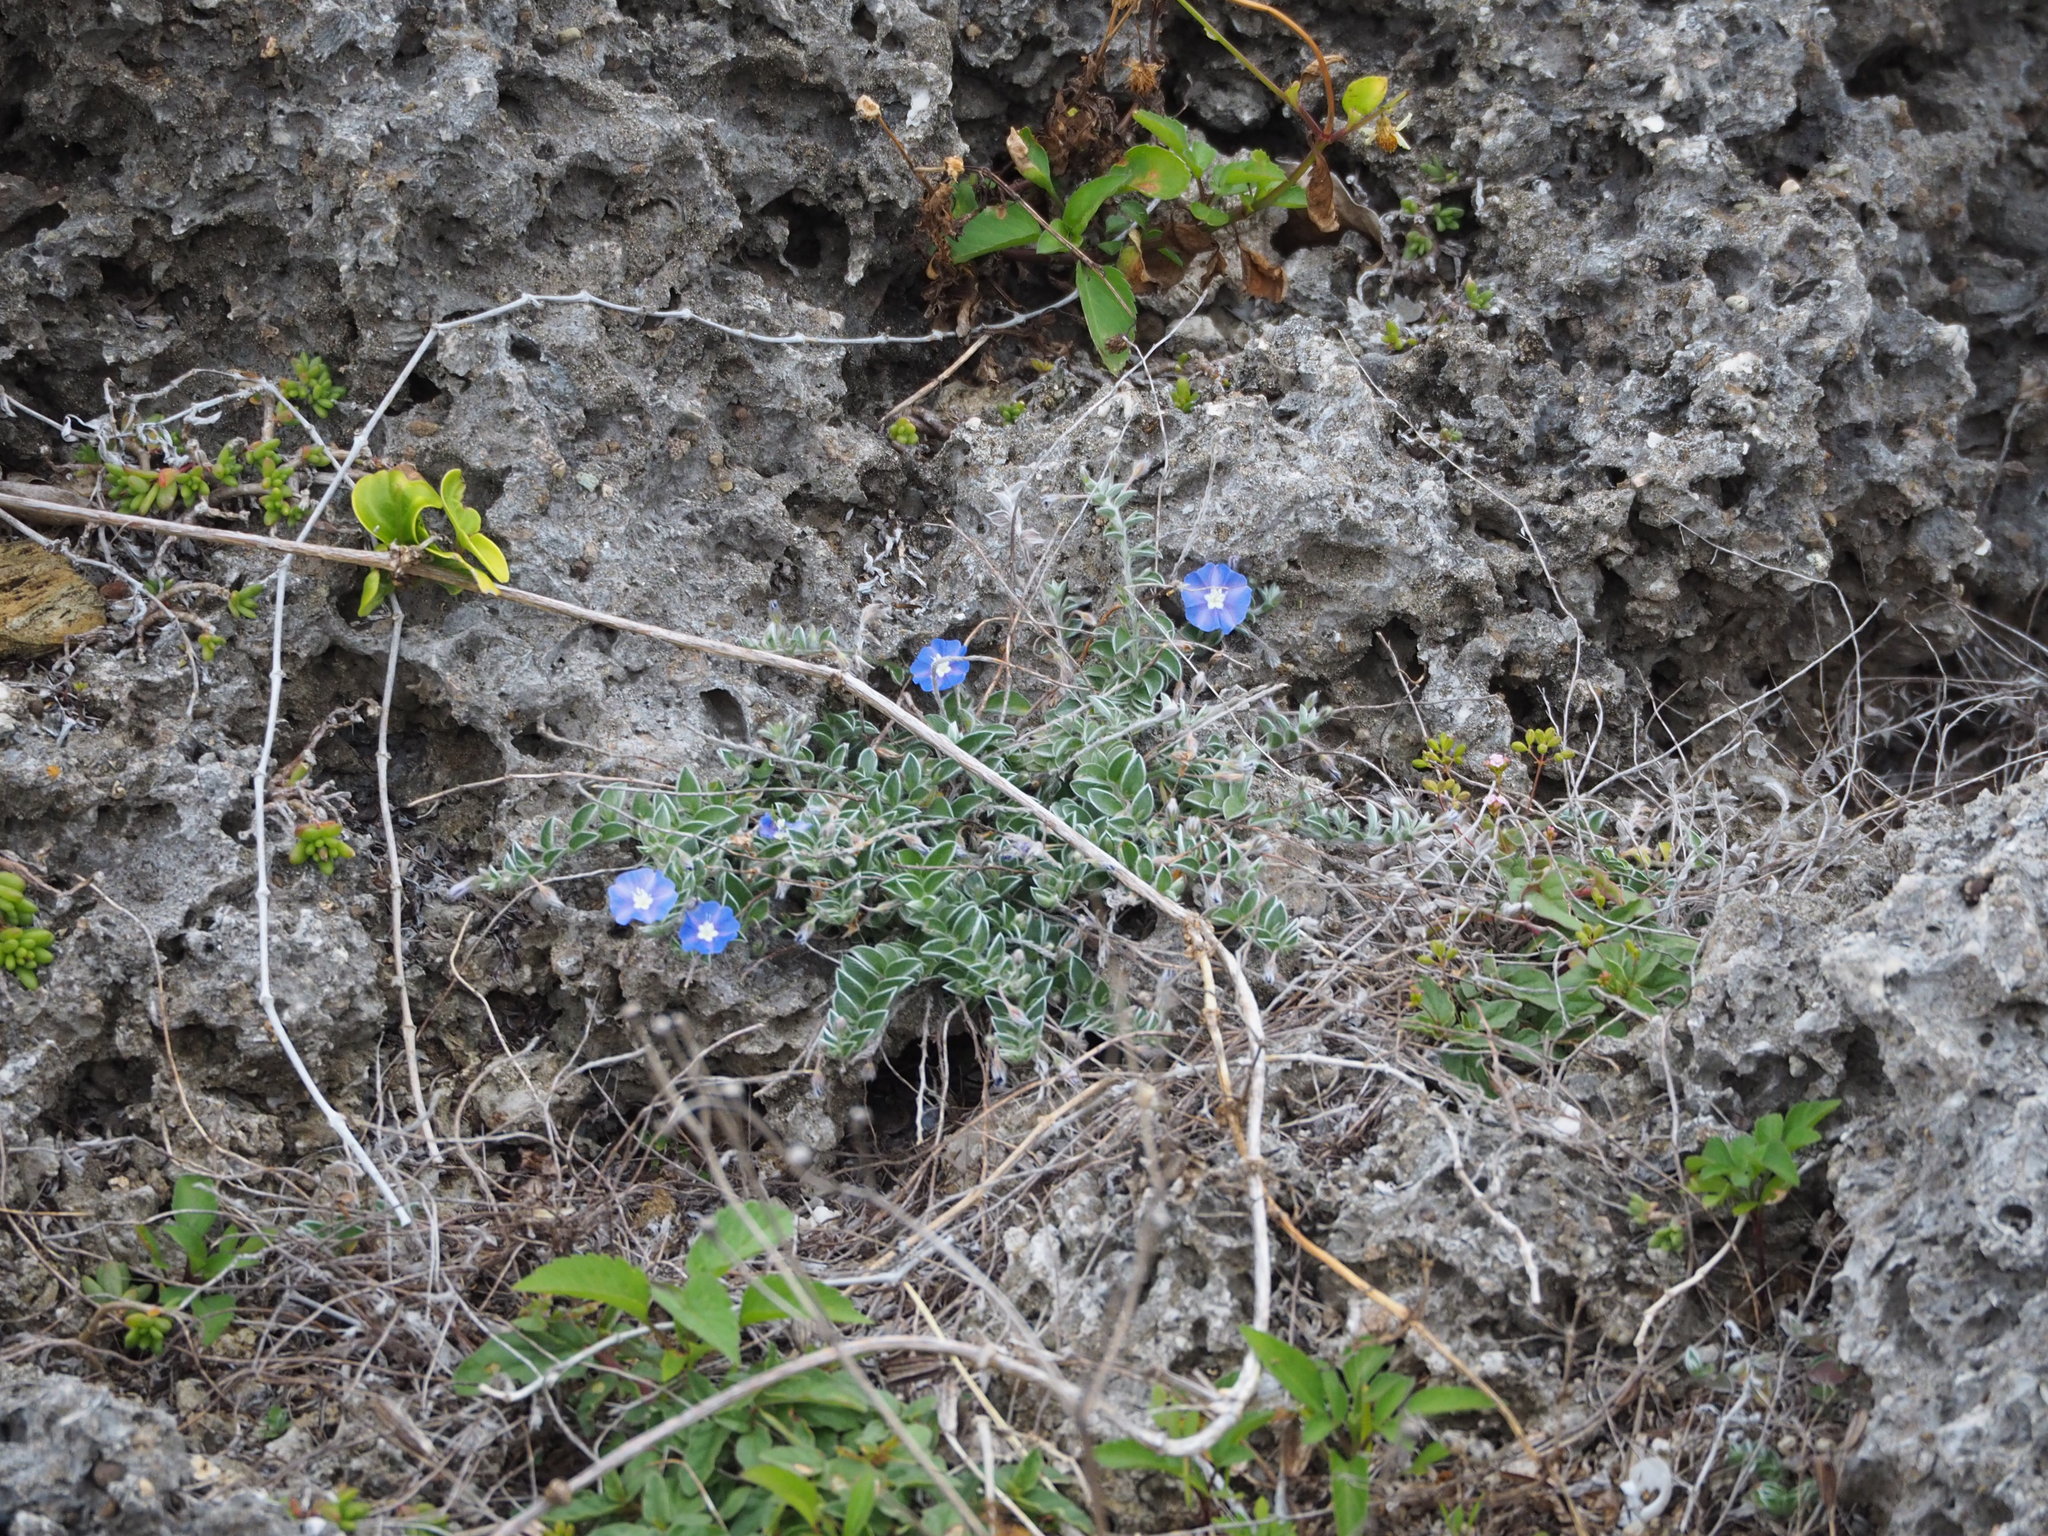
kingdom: Plantae
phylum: Tracheophyta
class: Magnoliopsida
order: Solanales
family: Convolvulaceae
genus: Evolvulus
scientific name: Evolvulus alsinoides
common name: Slender dwarf morning-glory
